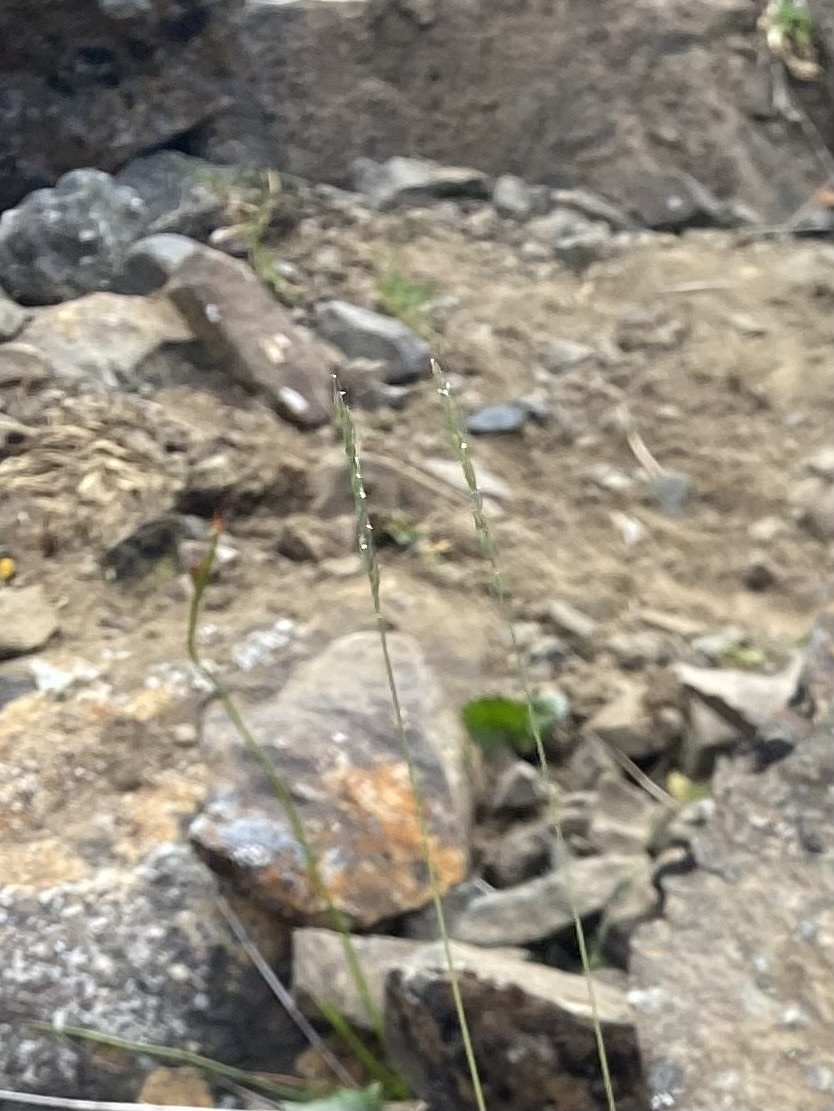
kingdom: Plantae
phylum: Tracheophyta
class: Liliopsida
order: Poales
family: Poaceae
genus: Festuca
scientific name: Festuca ovina
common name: Sheep fescue
